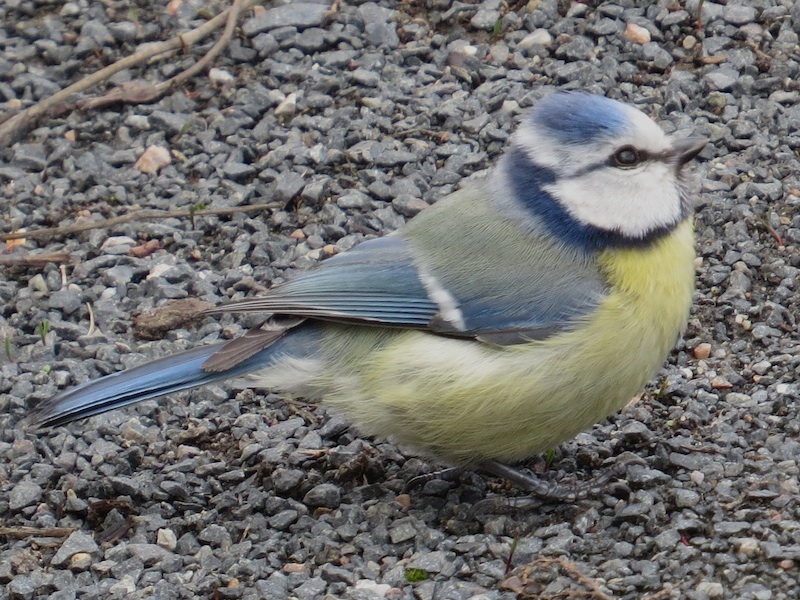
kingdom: Animalia
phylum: Chordata
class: Aves
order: Passeriformes
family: Paridae
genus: Cyanistes
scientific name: Cyanistes caeruleus
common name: Eurasian blue tit
